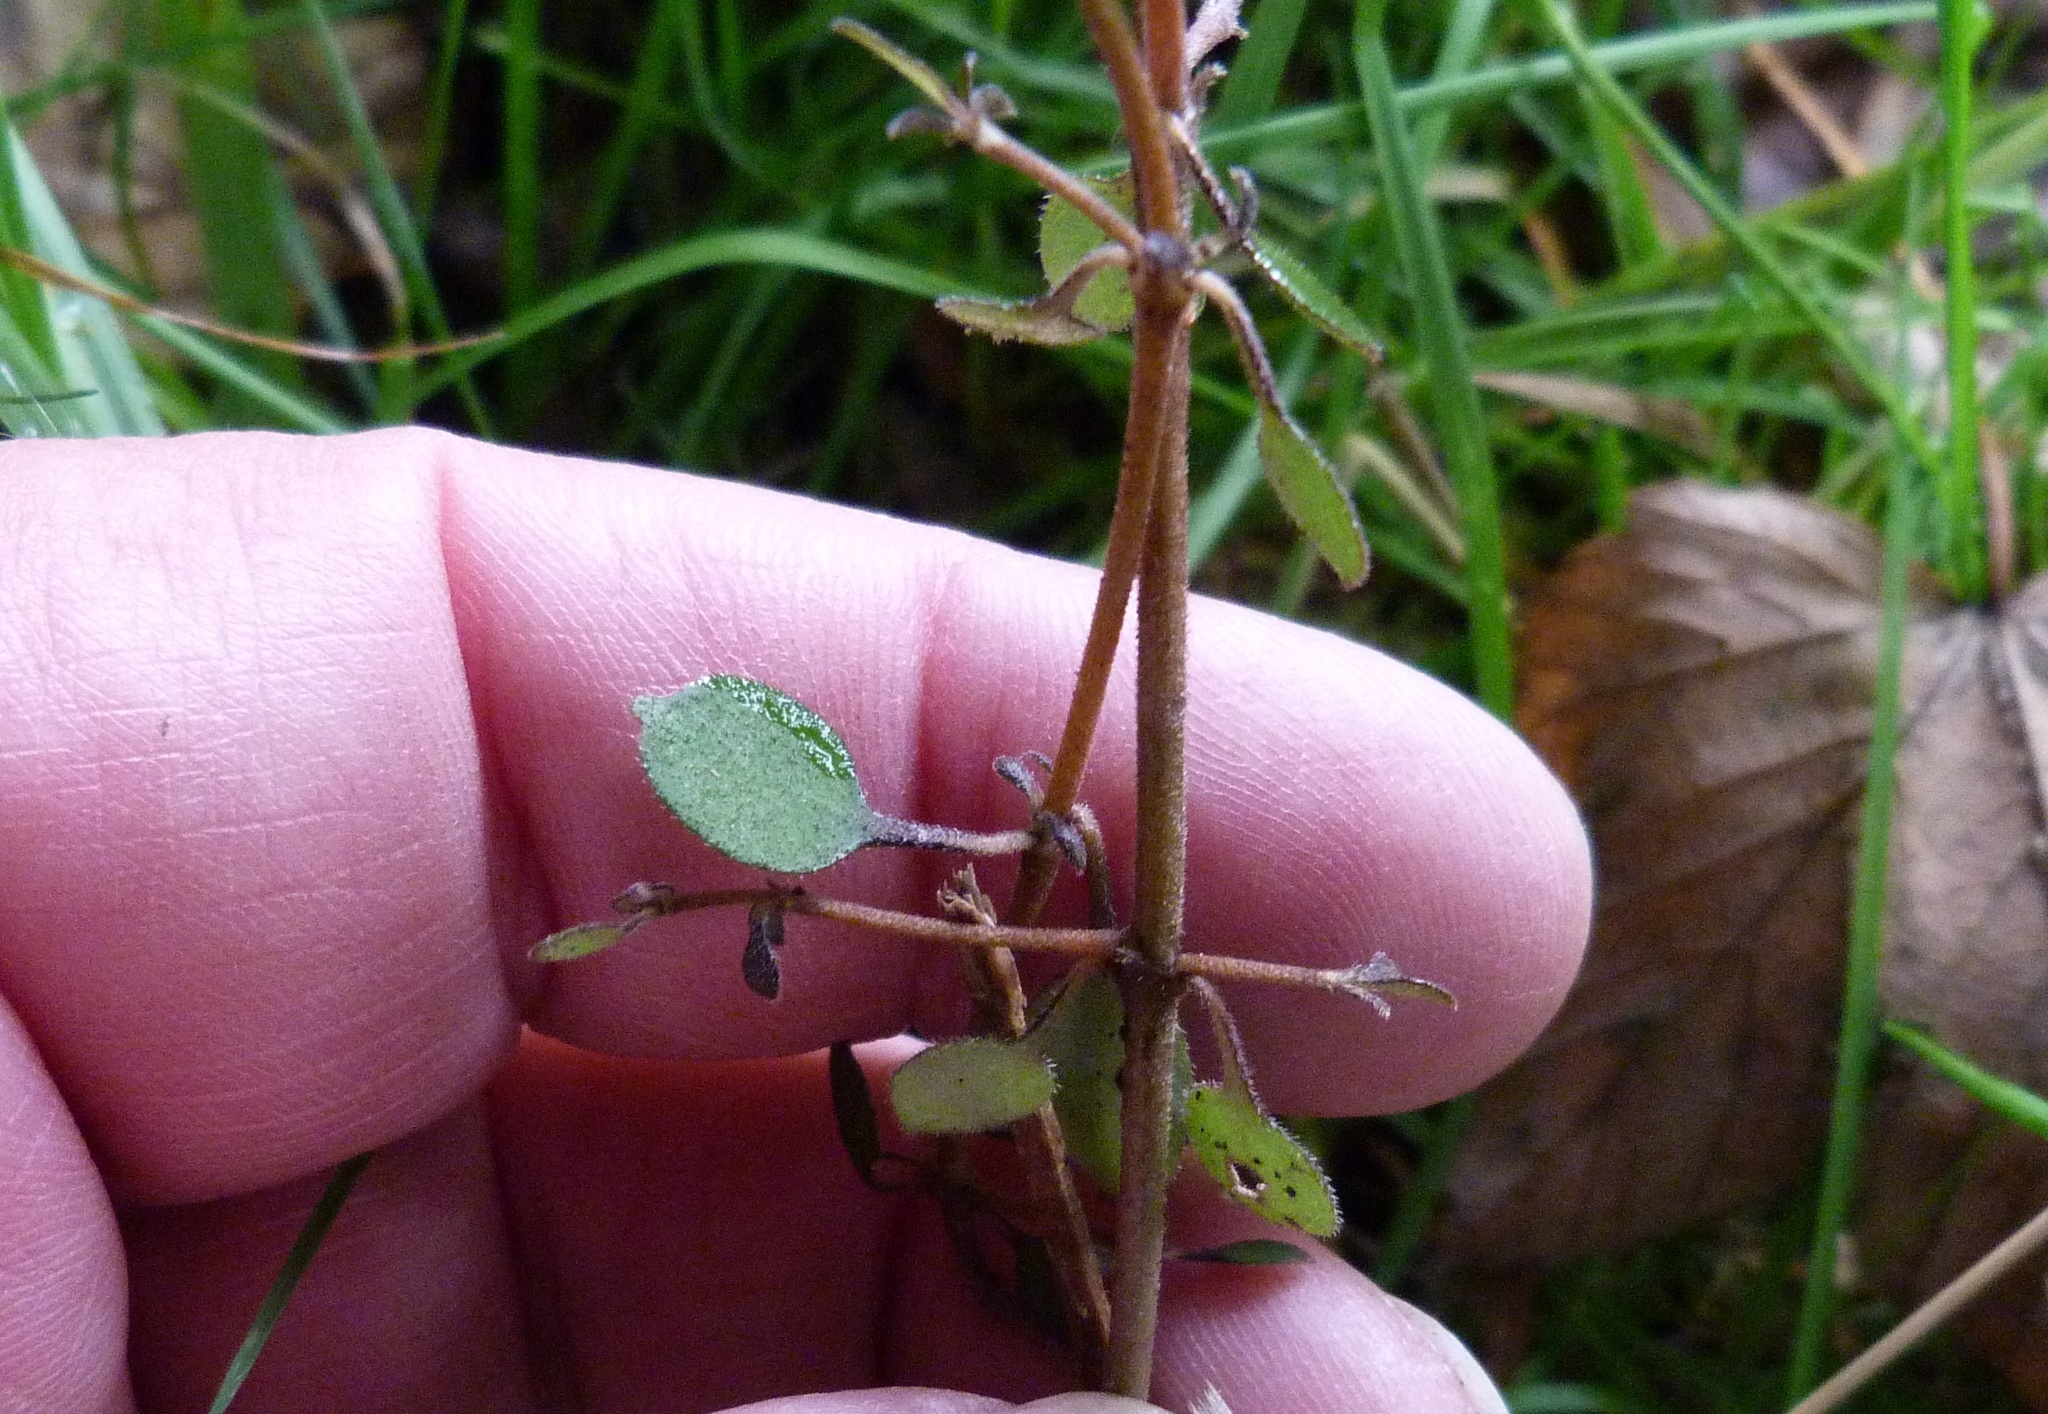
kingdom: Plantae
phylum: Tracheophyta
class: Magnoliopsida
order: Gentianales
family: Rubiaceae
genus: Coprosma
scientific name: Coprosma crassifolia
